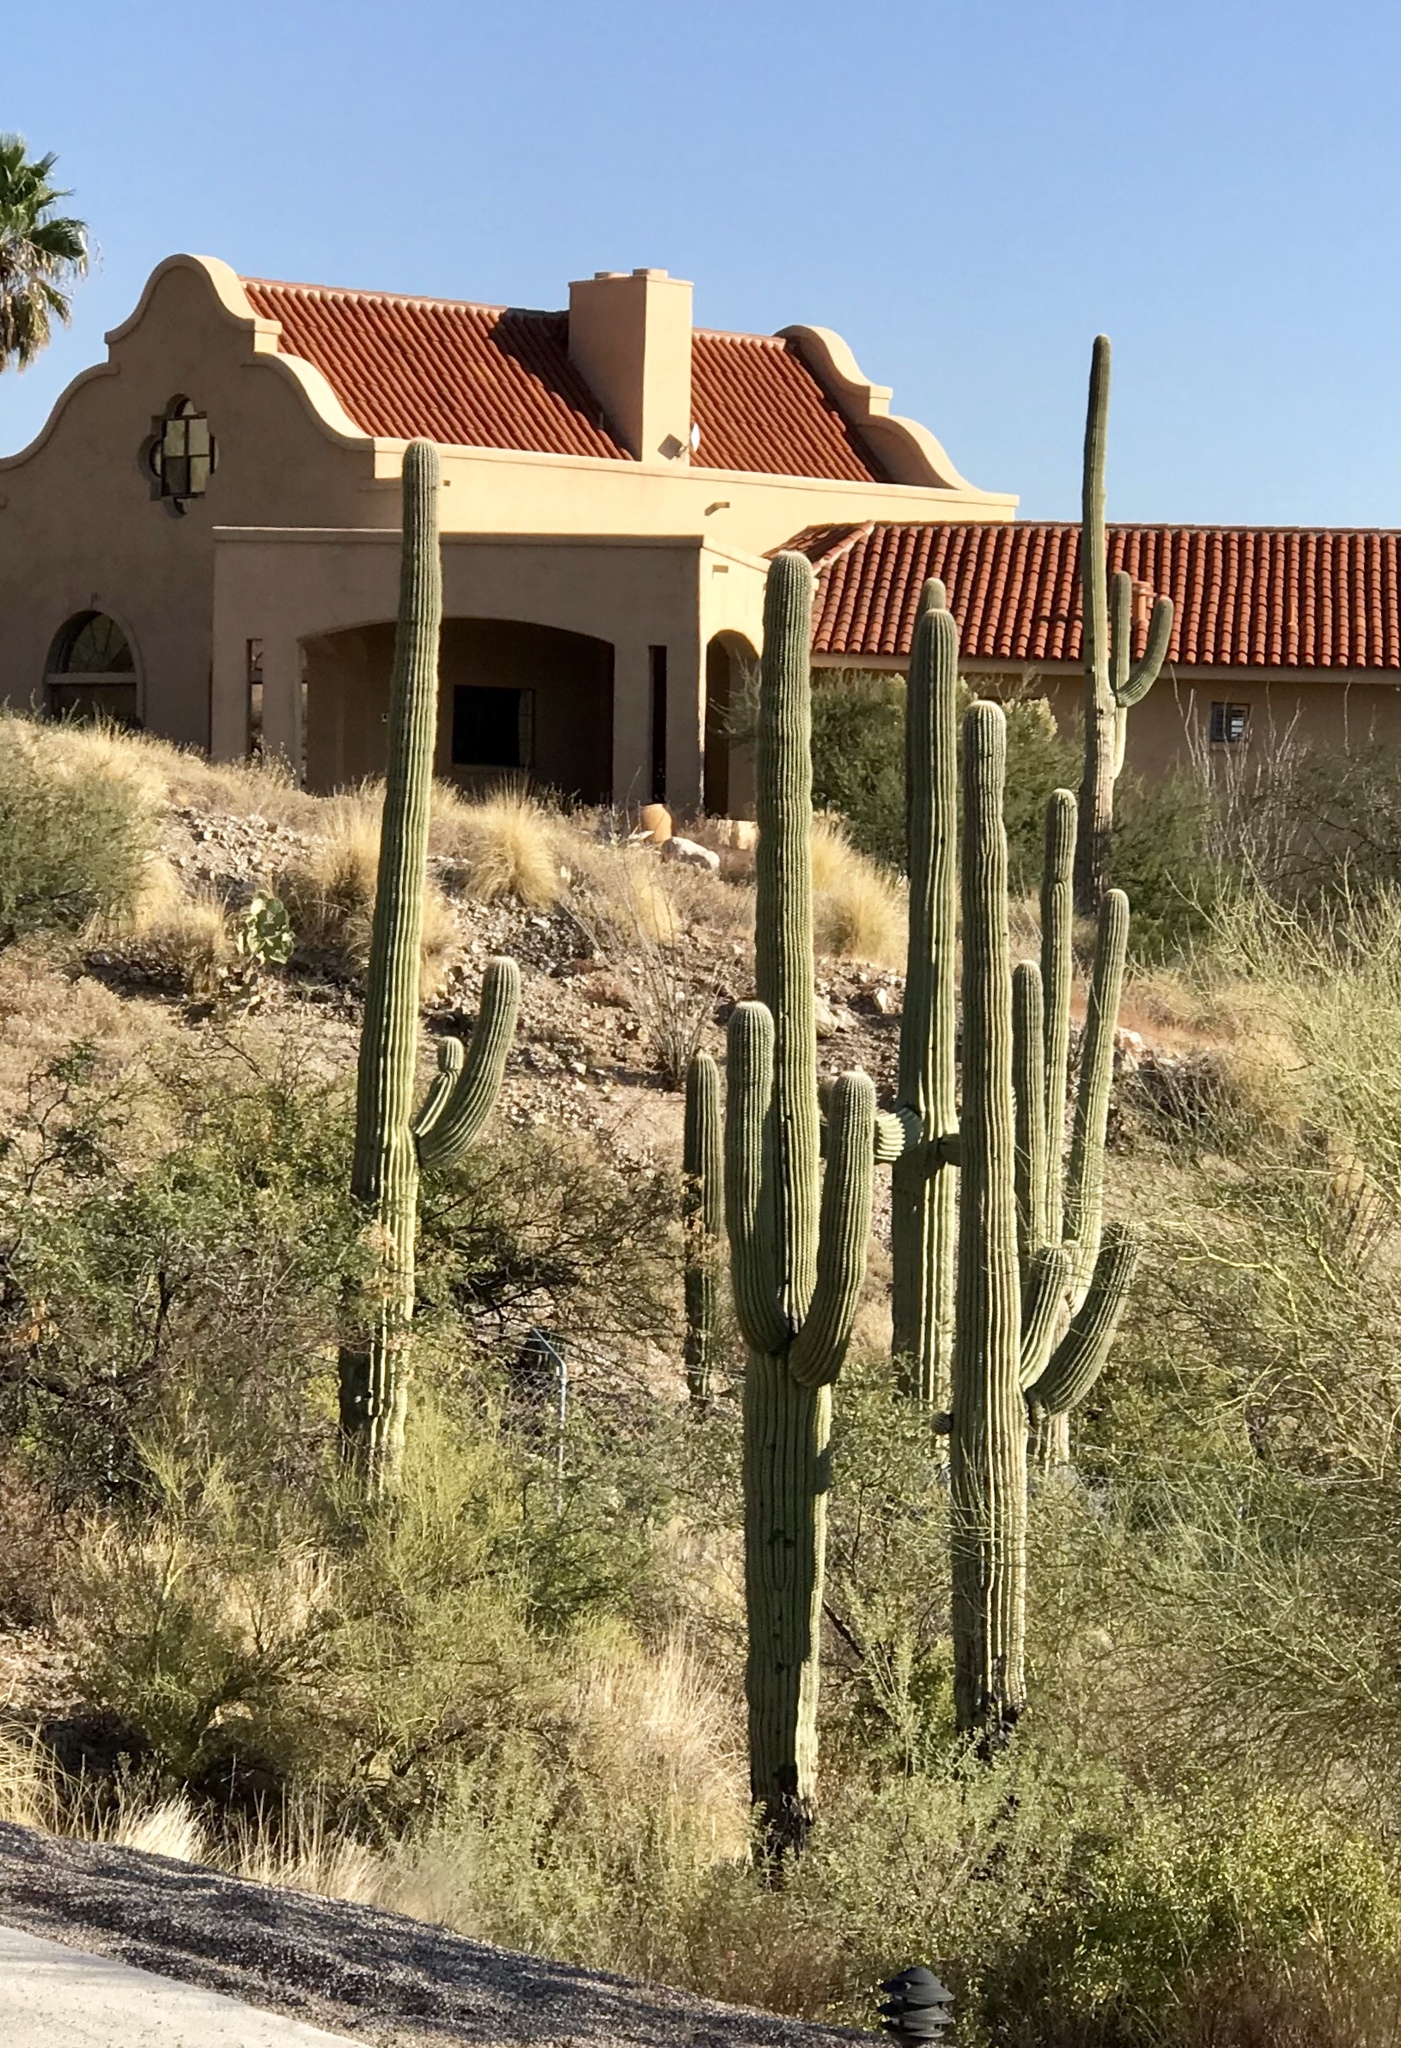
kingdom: Plantae
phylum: Tracheophyta
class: Magnoliopsida
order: Caryophyllales
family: Cactaceae
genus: Carnegiea
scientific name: Carnegiea gigantea
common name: Saguaro
